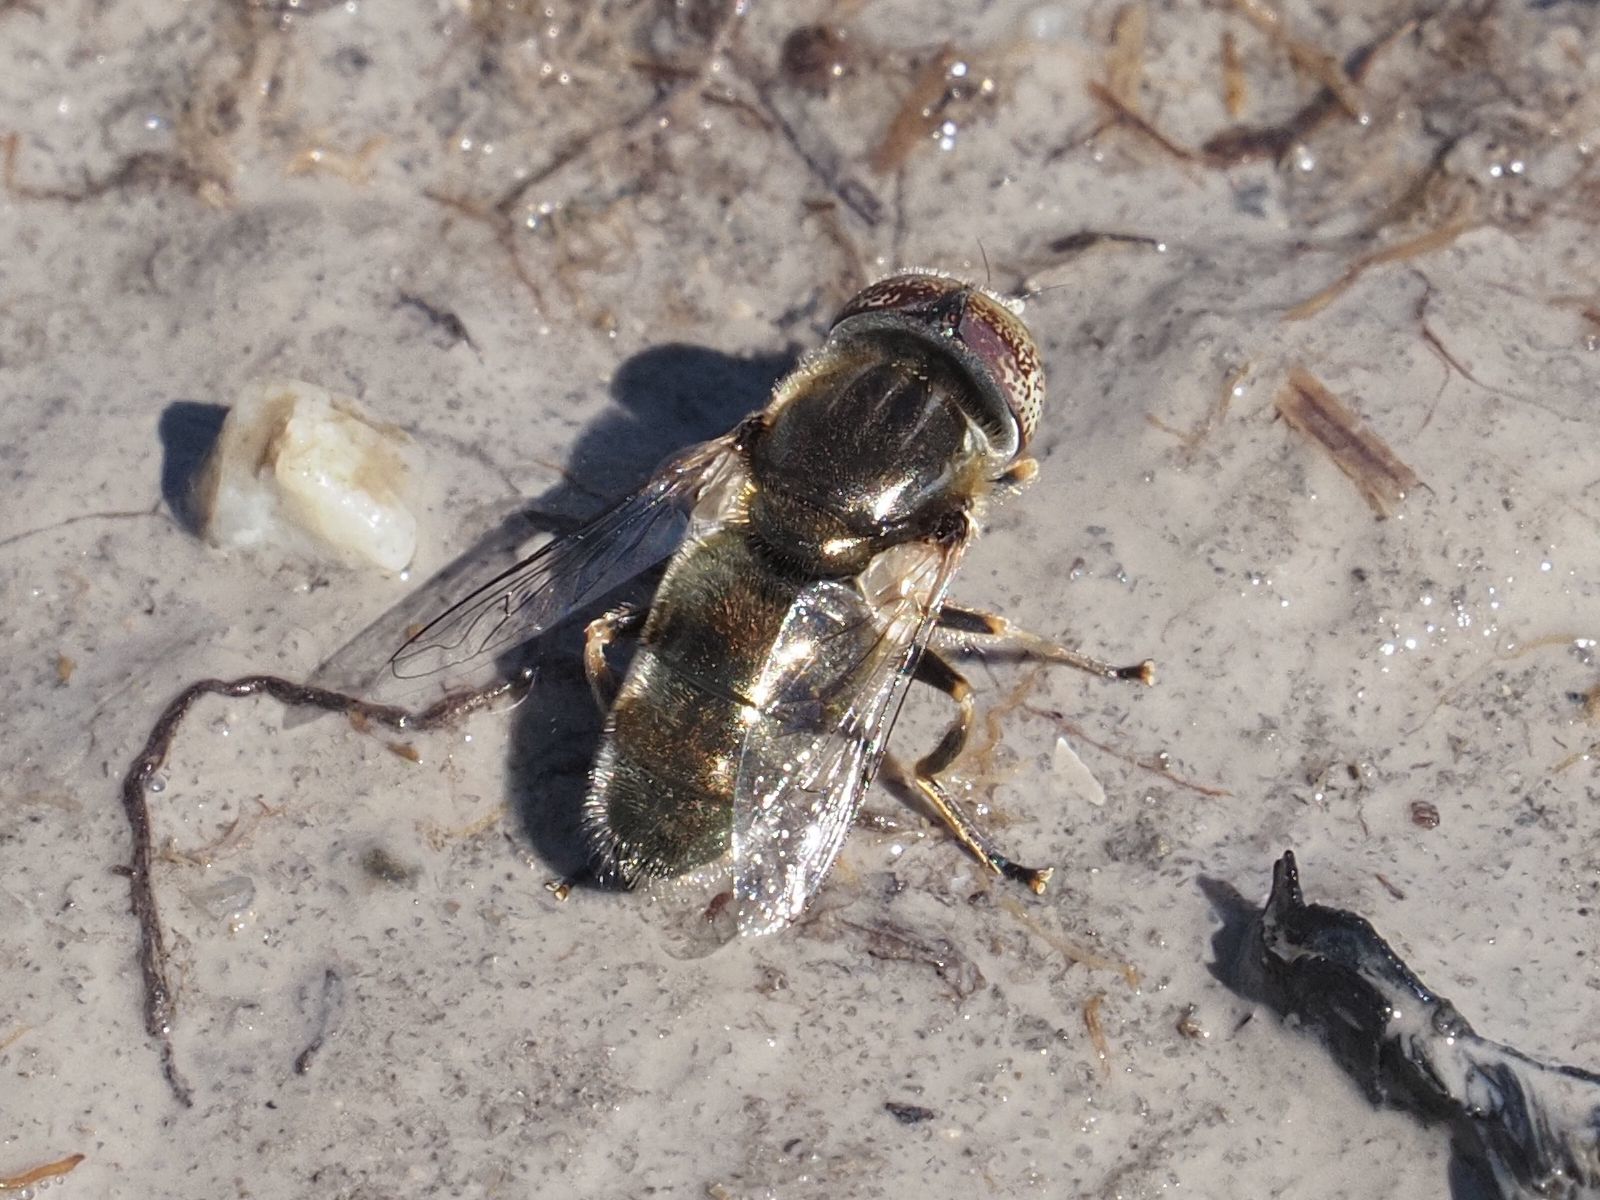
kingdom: Animalia
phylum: Arthropoda
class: Insecta
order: Diptera
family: Syrphidae
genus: Eristalinus
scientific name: Eristalinus aeneus
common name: Syrphid fly
